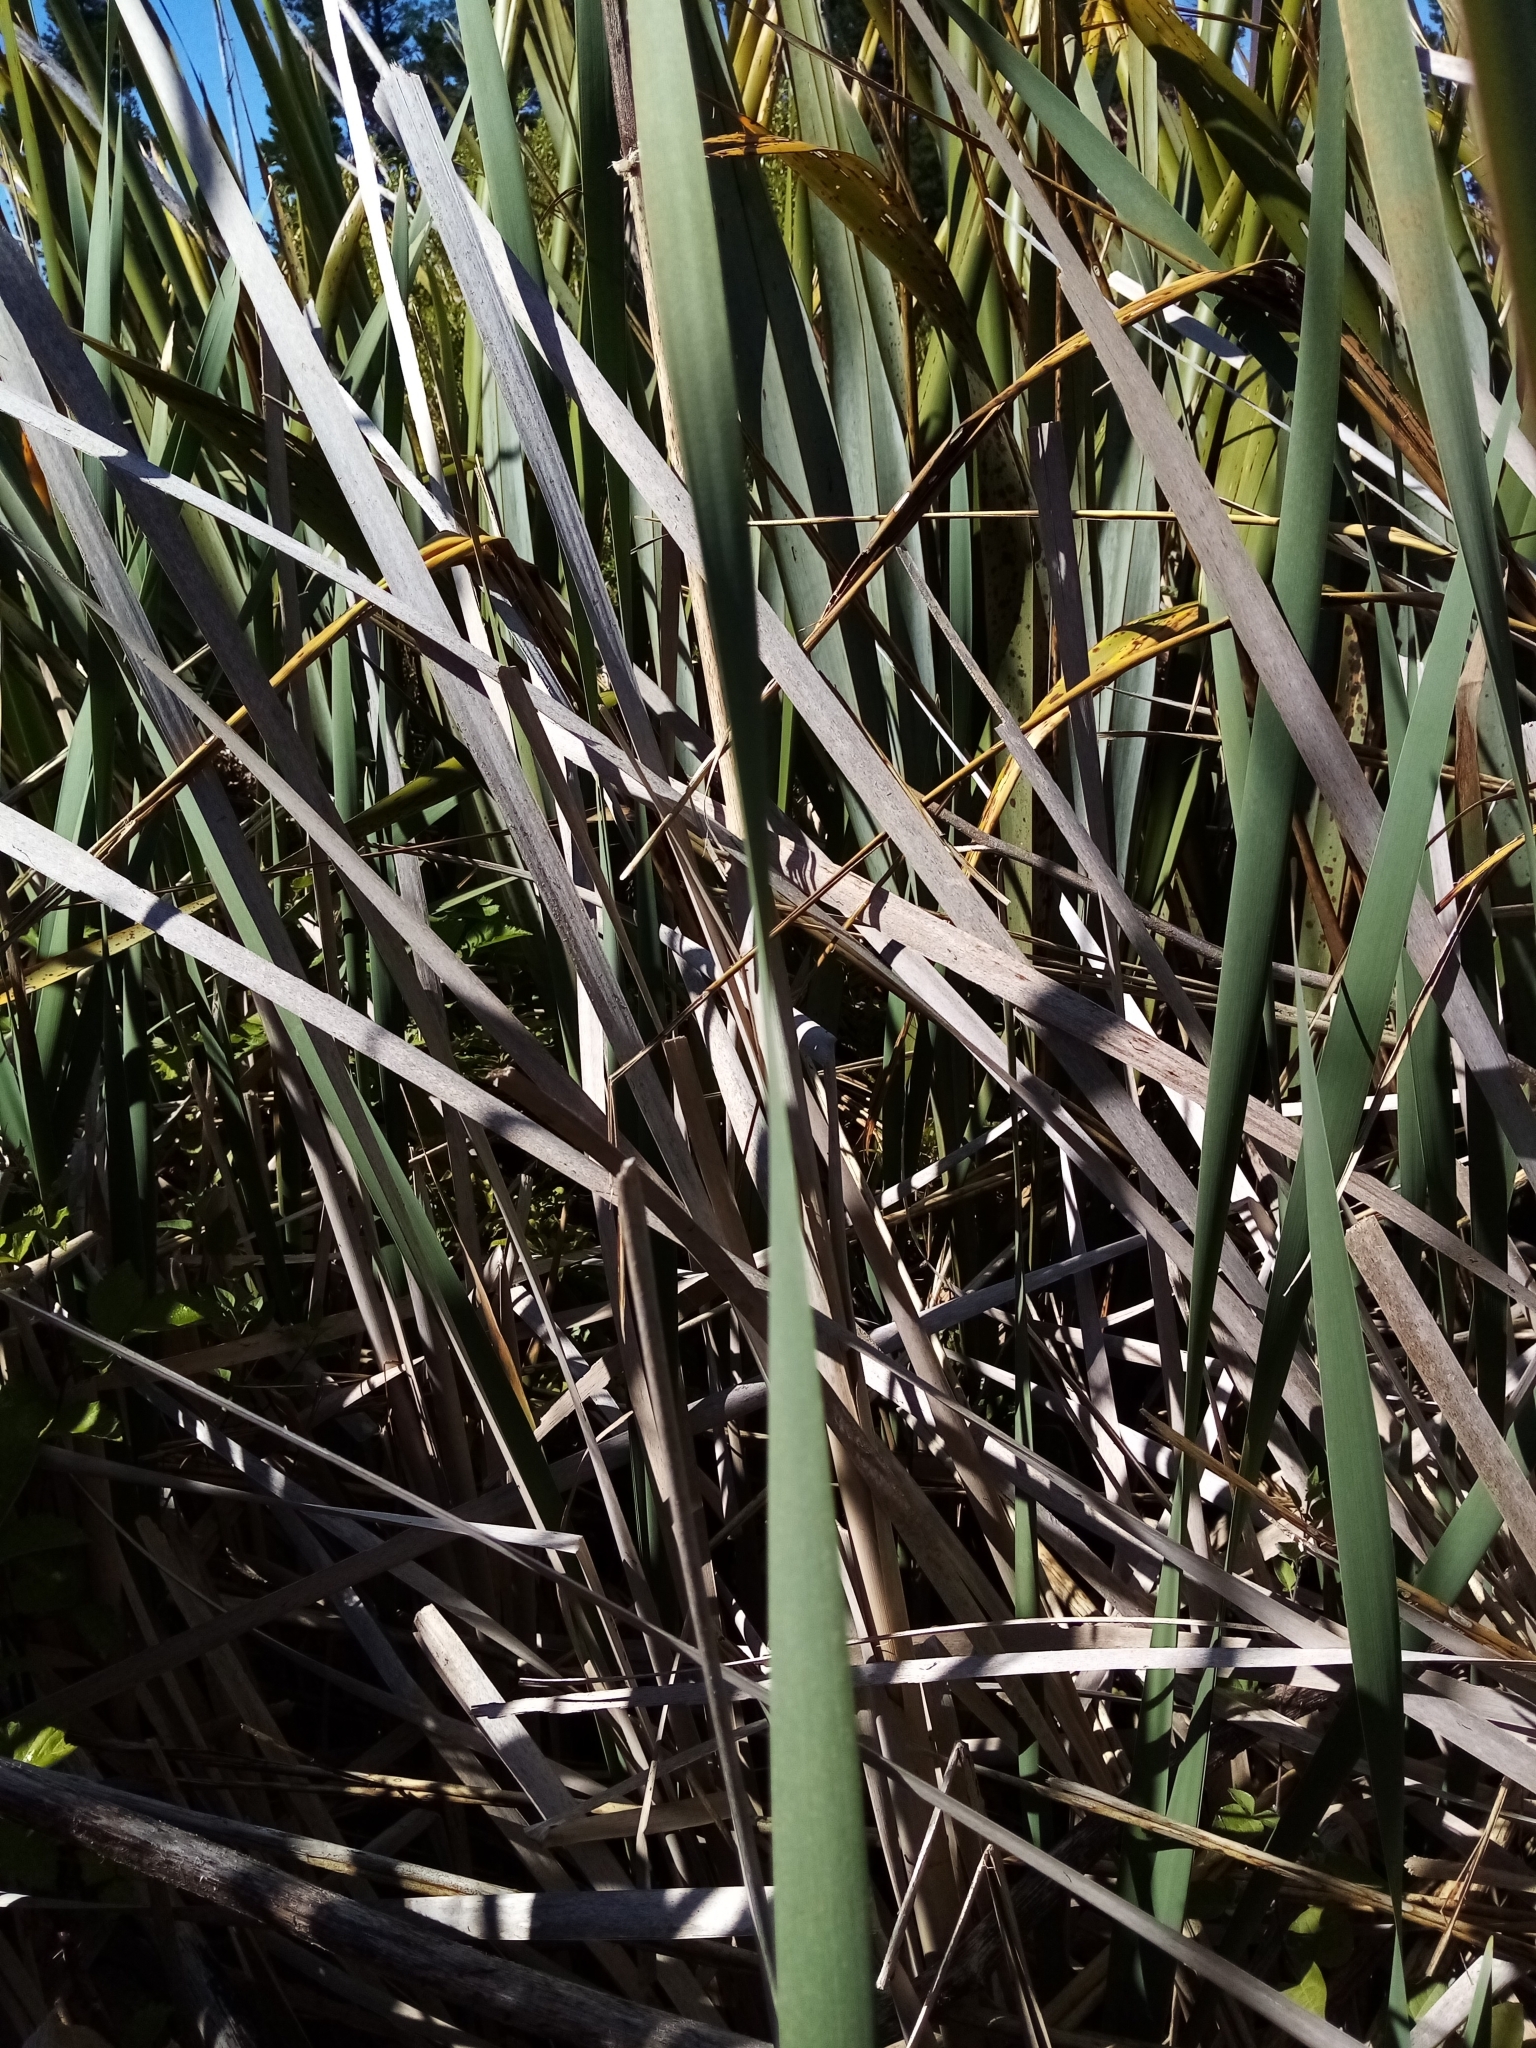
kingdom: Plantae
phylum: Tracheophyta
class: Liliopsida
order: Poales
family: Typhaceae
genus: Typha
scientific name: Typha orientalis
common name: Bullrush
